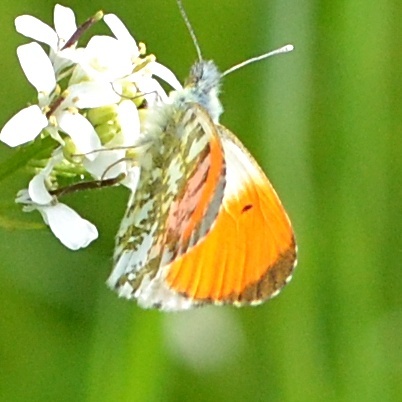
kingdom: Animalia
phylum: Arthropoda
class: Insecta
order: Lepidoptera
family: Pieridae
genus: Anthocharis
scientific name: Anthocharis cardamines
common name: Orange-tip
